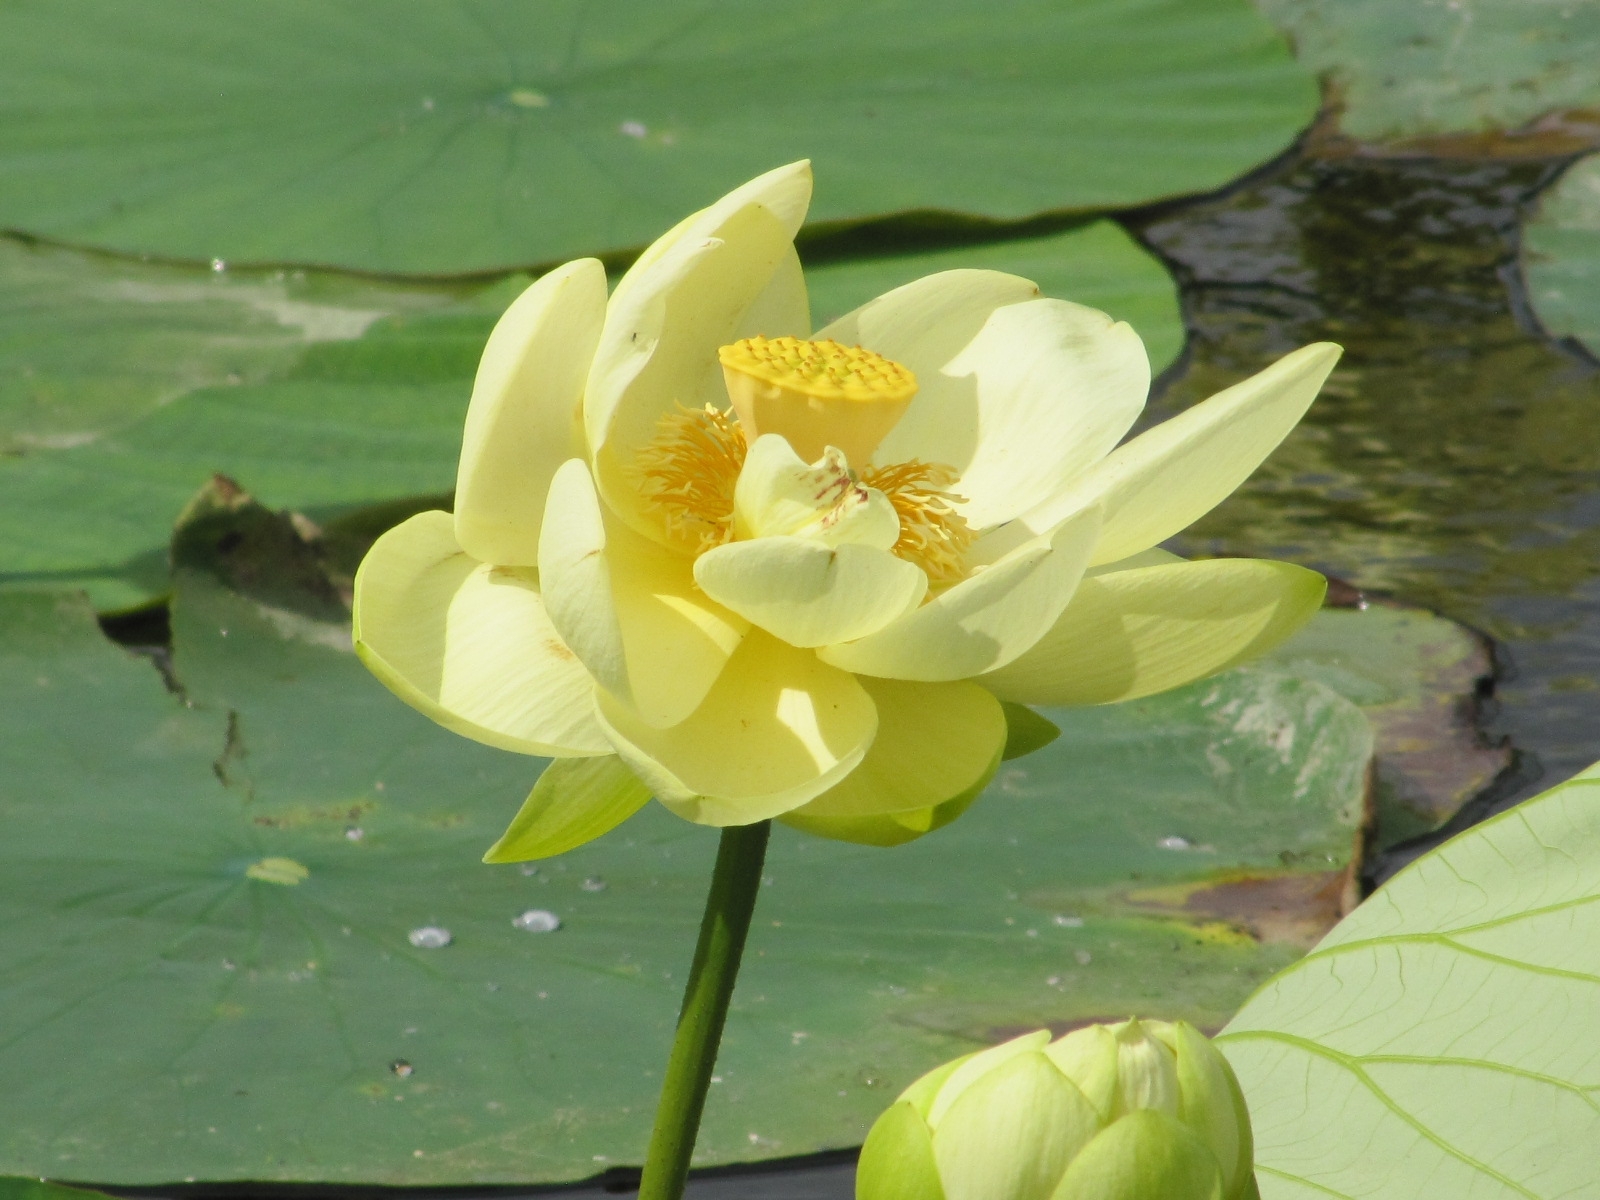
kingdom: Plantae
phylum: Tracheophyta
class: Magnoliopsida
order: Proteales
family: Nelumbonaceae
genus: Nelumbo
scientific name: Nelumbo lutea
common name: American lotus
